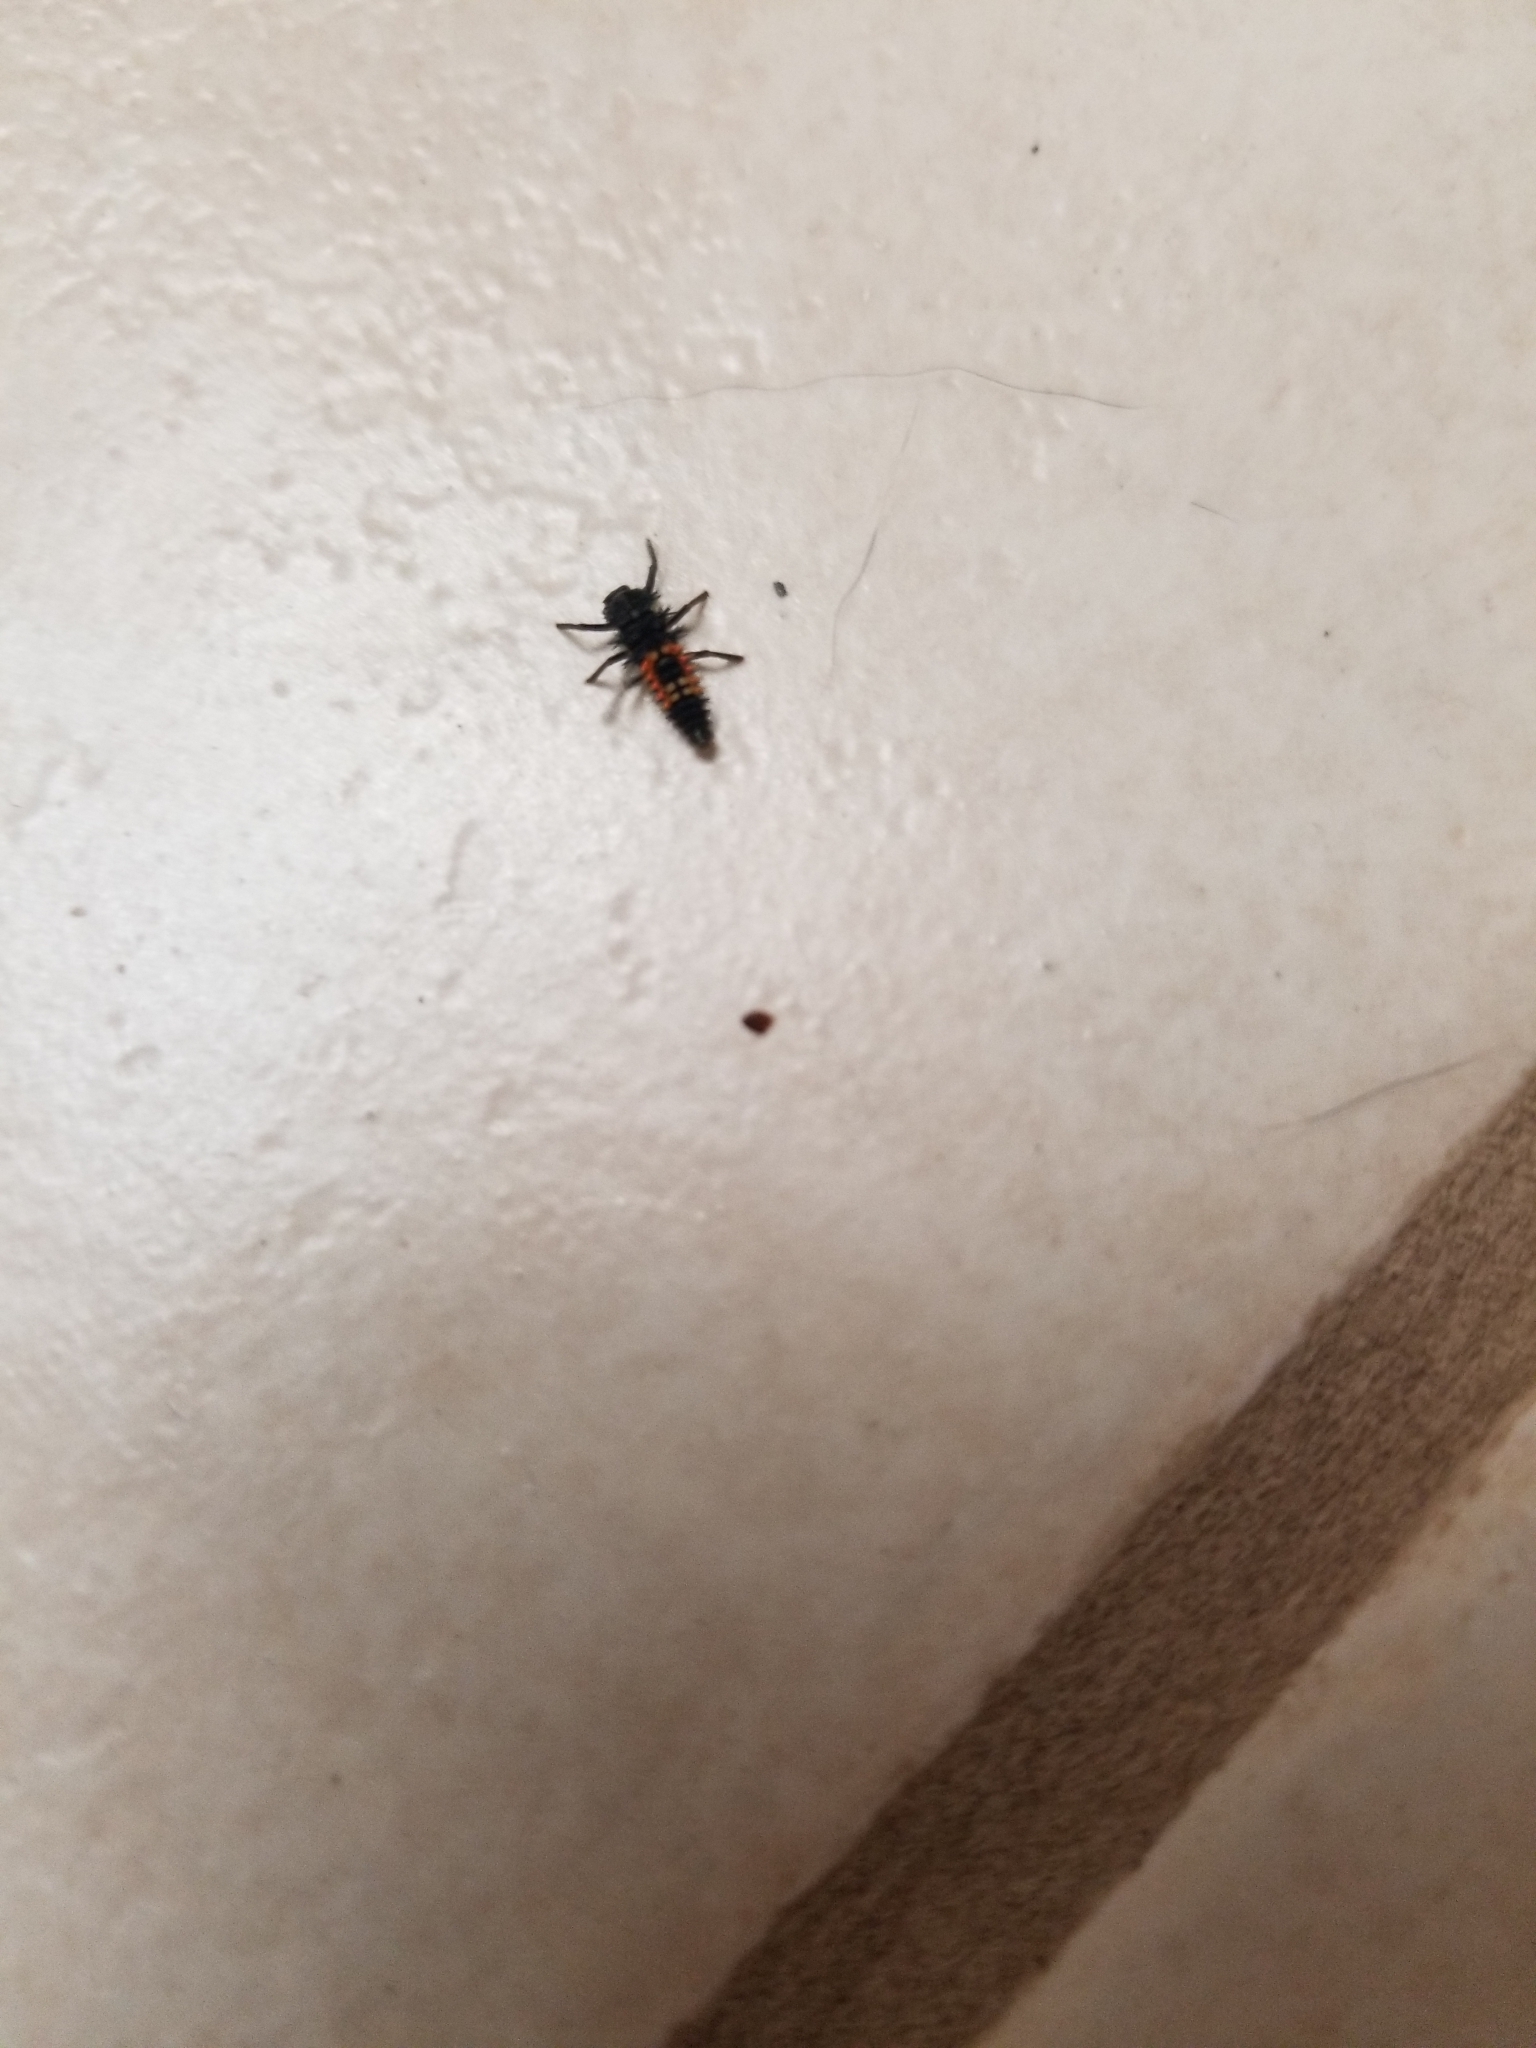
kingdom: Animalia
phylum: Arthropoda
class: Insecta
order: Coleoptera
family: Coccinellidae
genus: Harmonia
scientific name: Harmonia axyridis
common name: Harlequin ladybird
